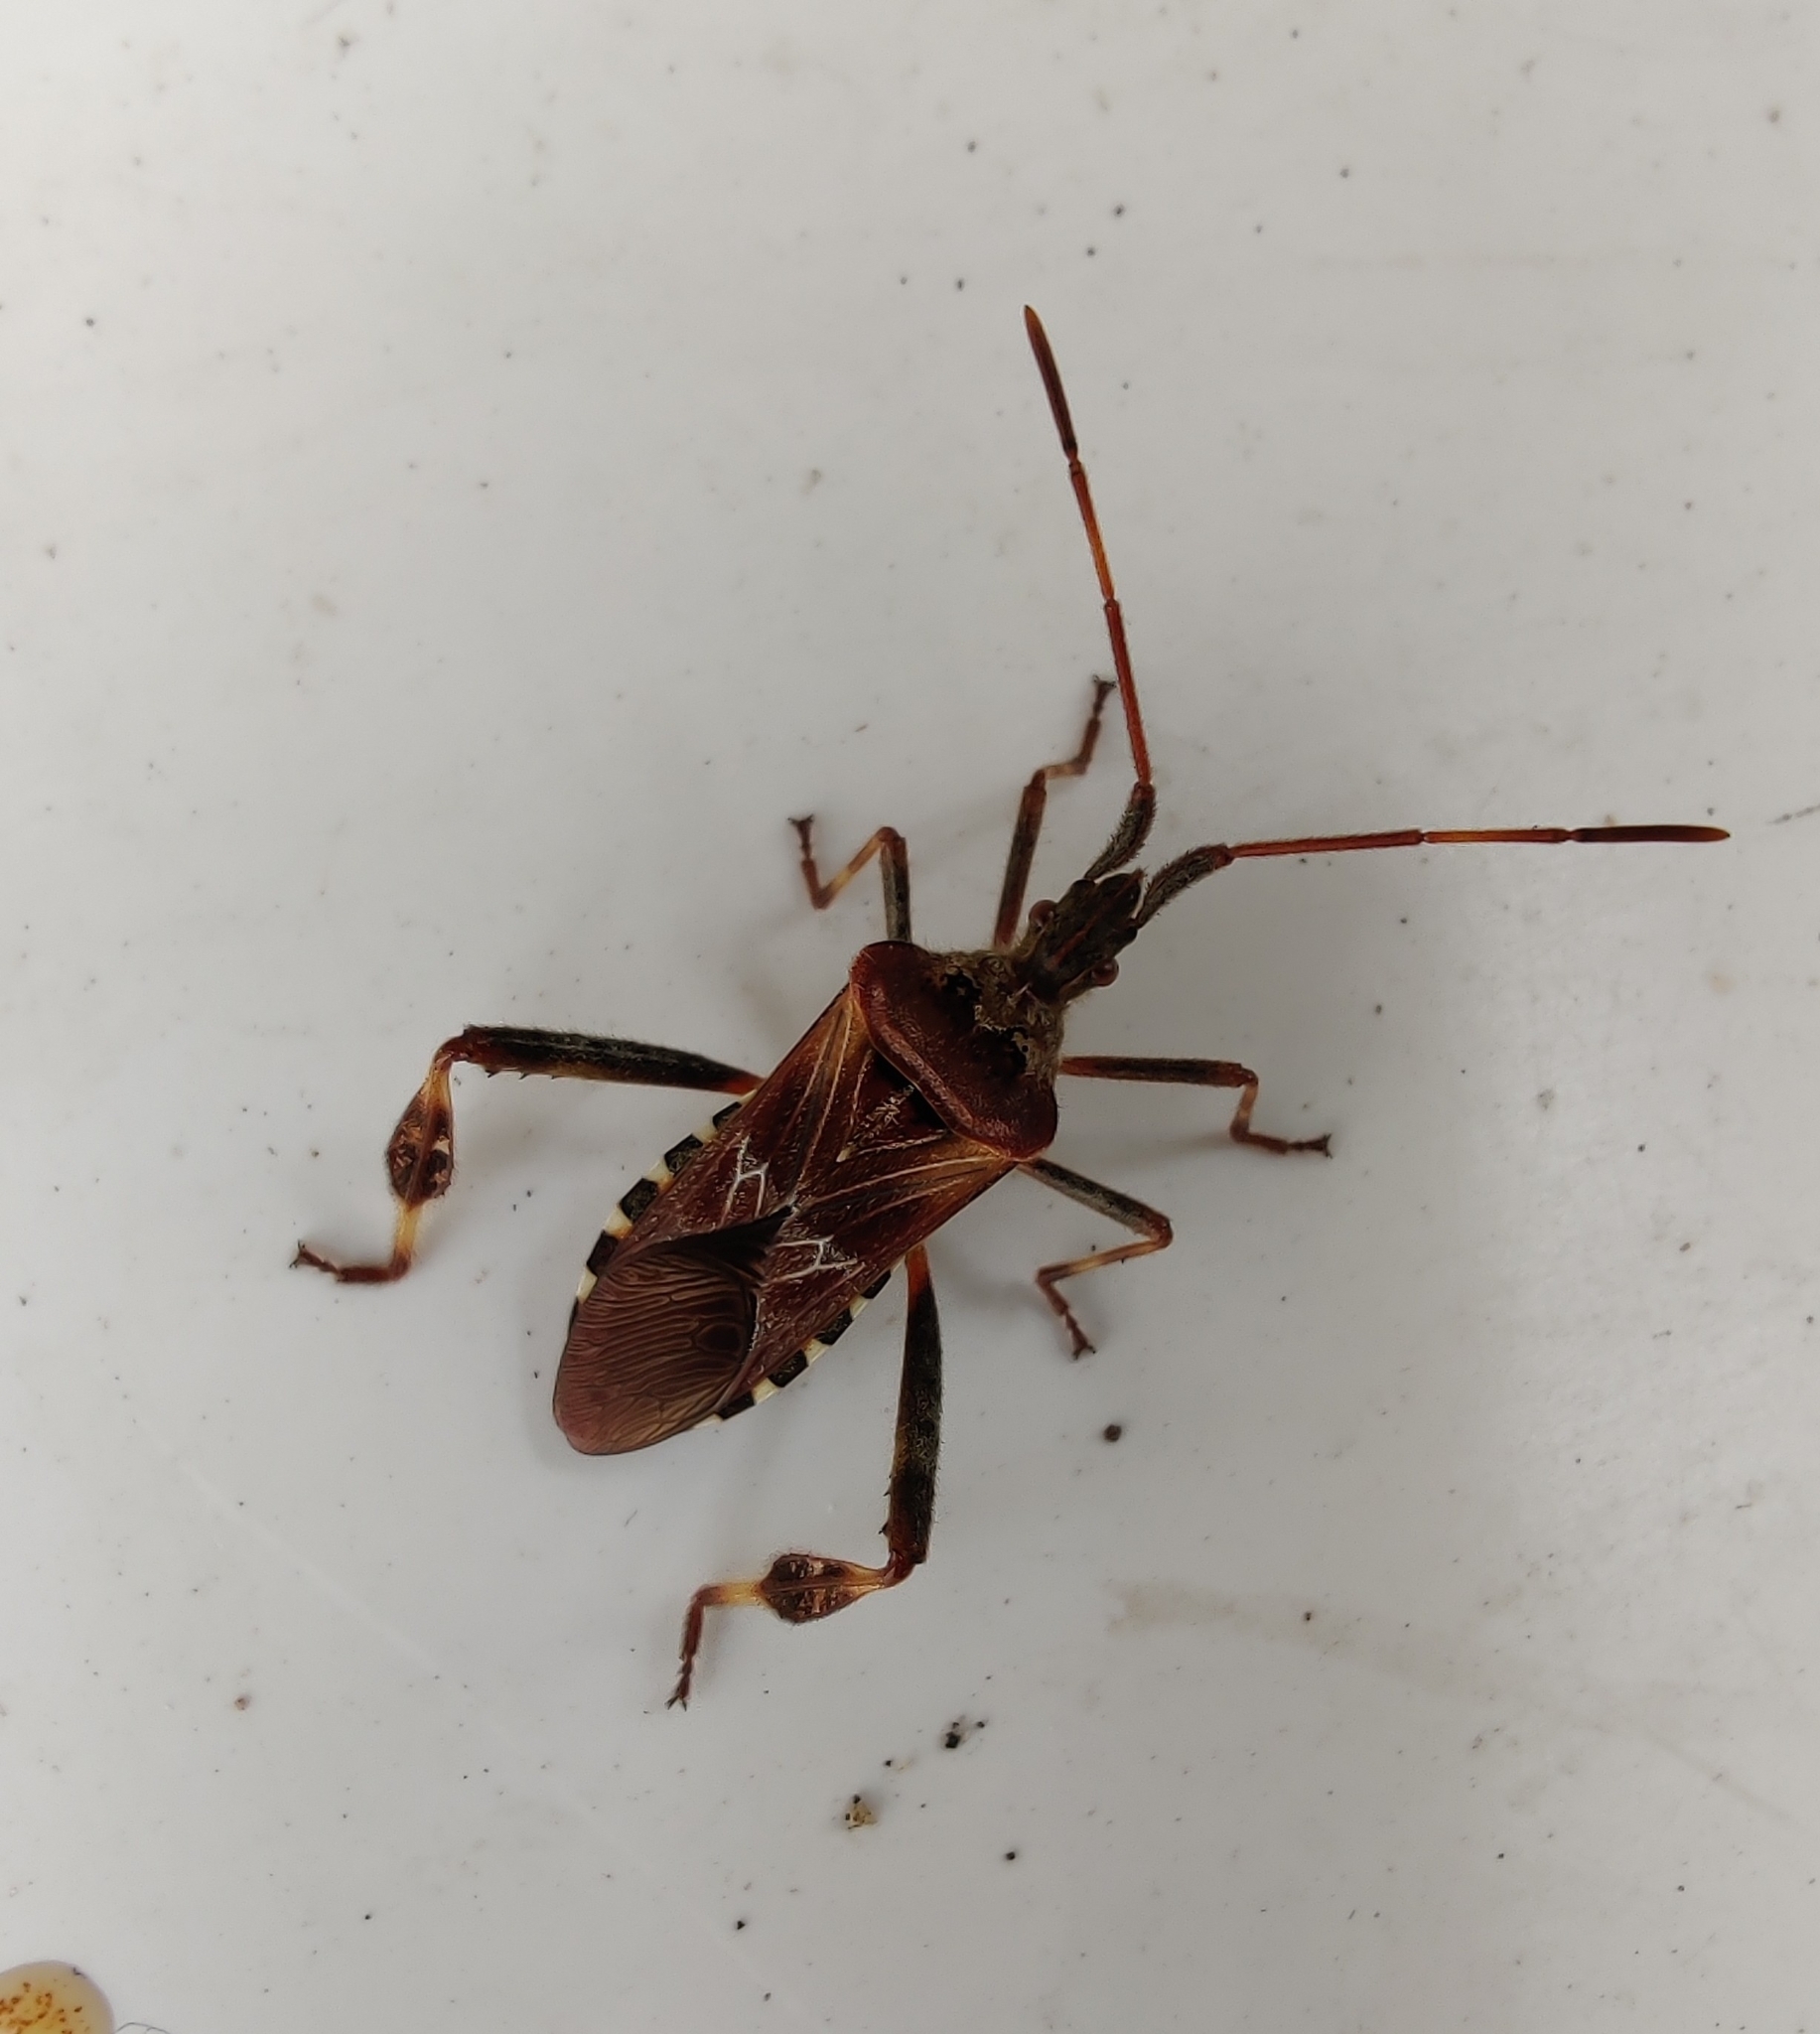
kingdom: Animalia
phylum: Arthropoda
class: Insecta
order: Hemiptera
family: Coreidae
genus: Leptoglossus
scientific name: Leptoglossus occidentalis
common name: Western conifer-seed bug
